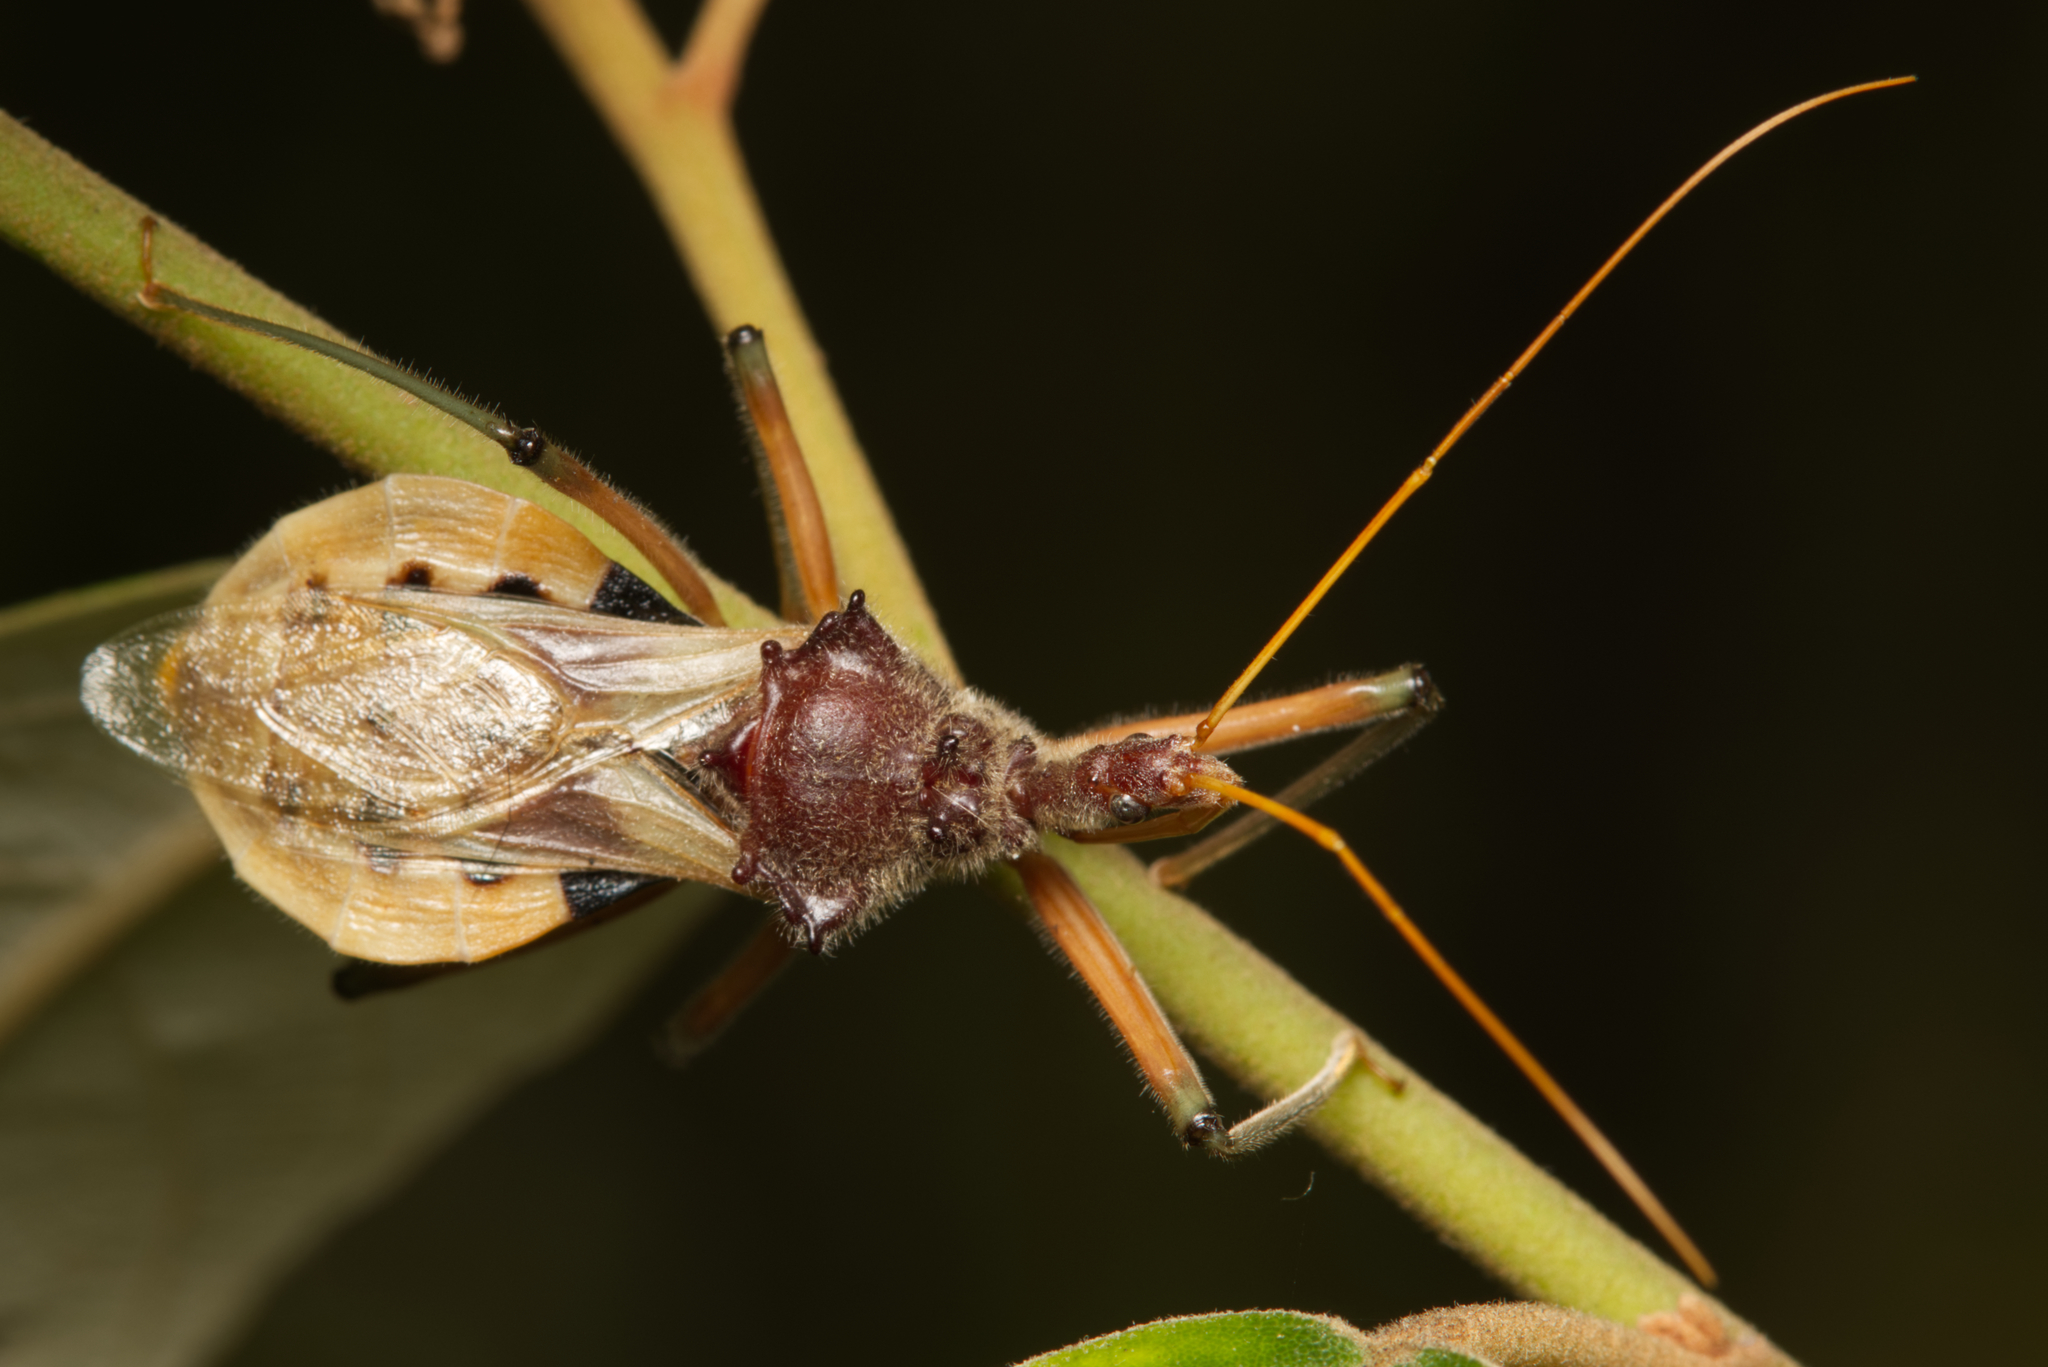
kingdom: Animalia
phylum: Arthropoda
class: Insecta
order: Hemiptera
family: Reduviidae
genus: Pristhesancus
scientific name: Pristhesancus plagipennis
